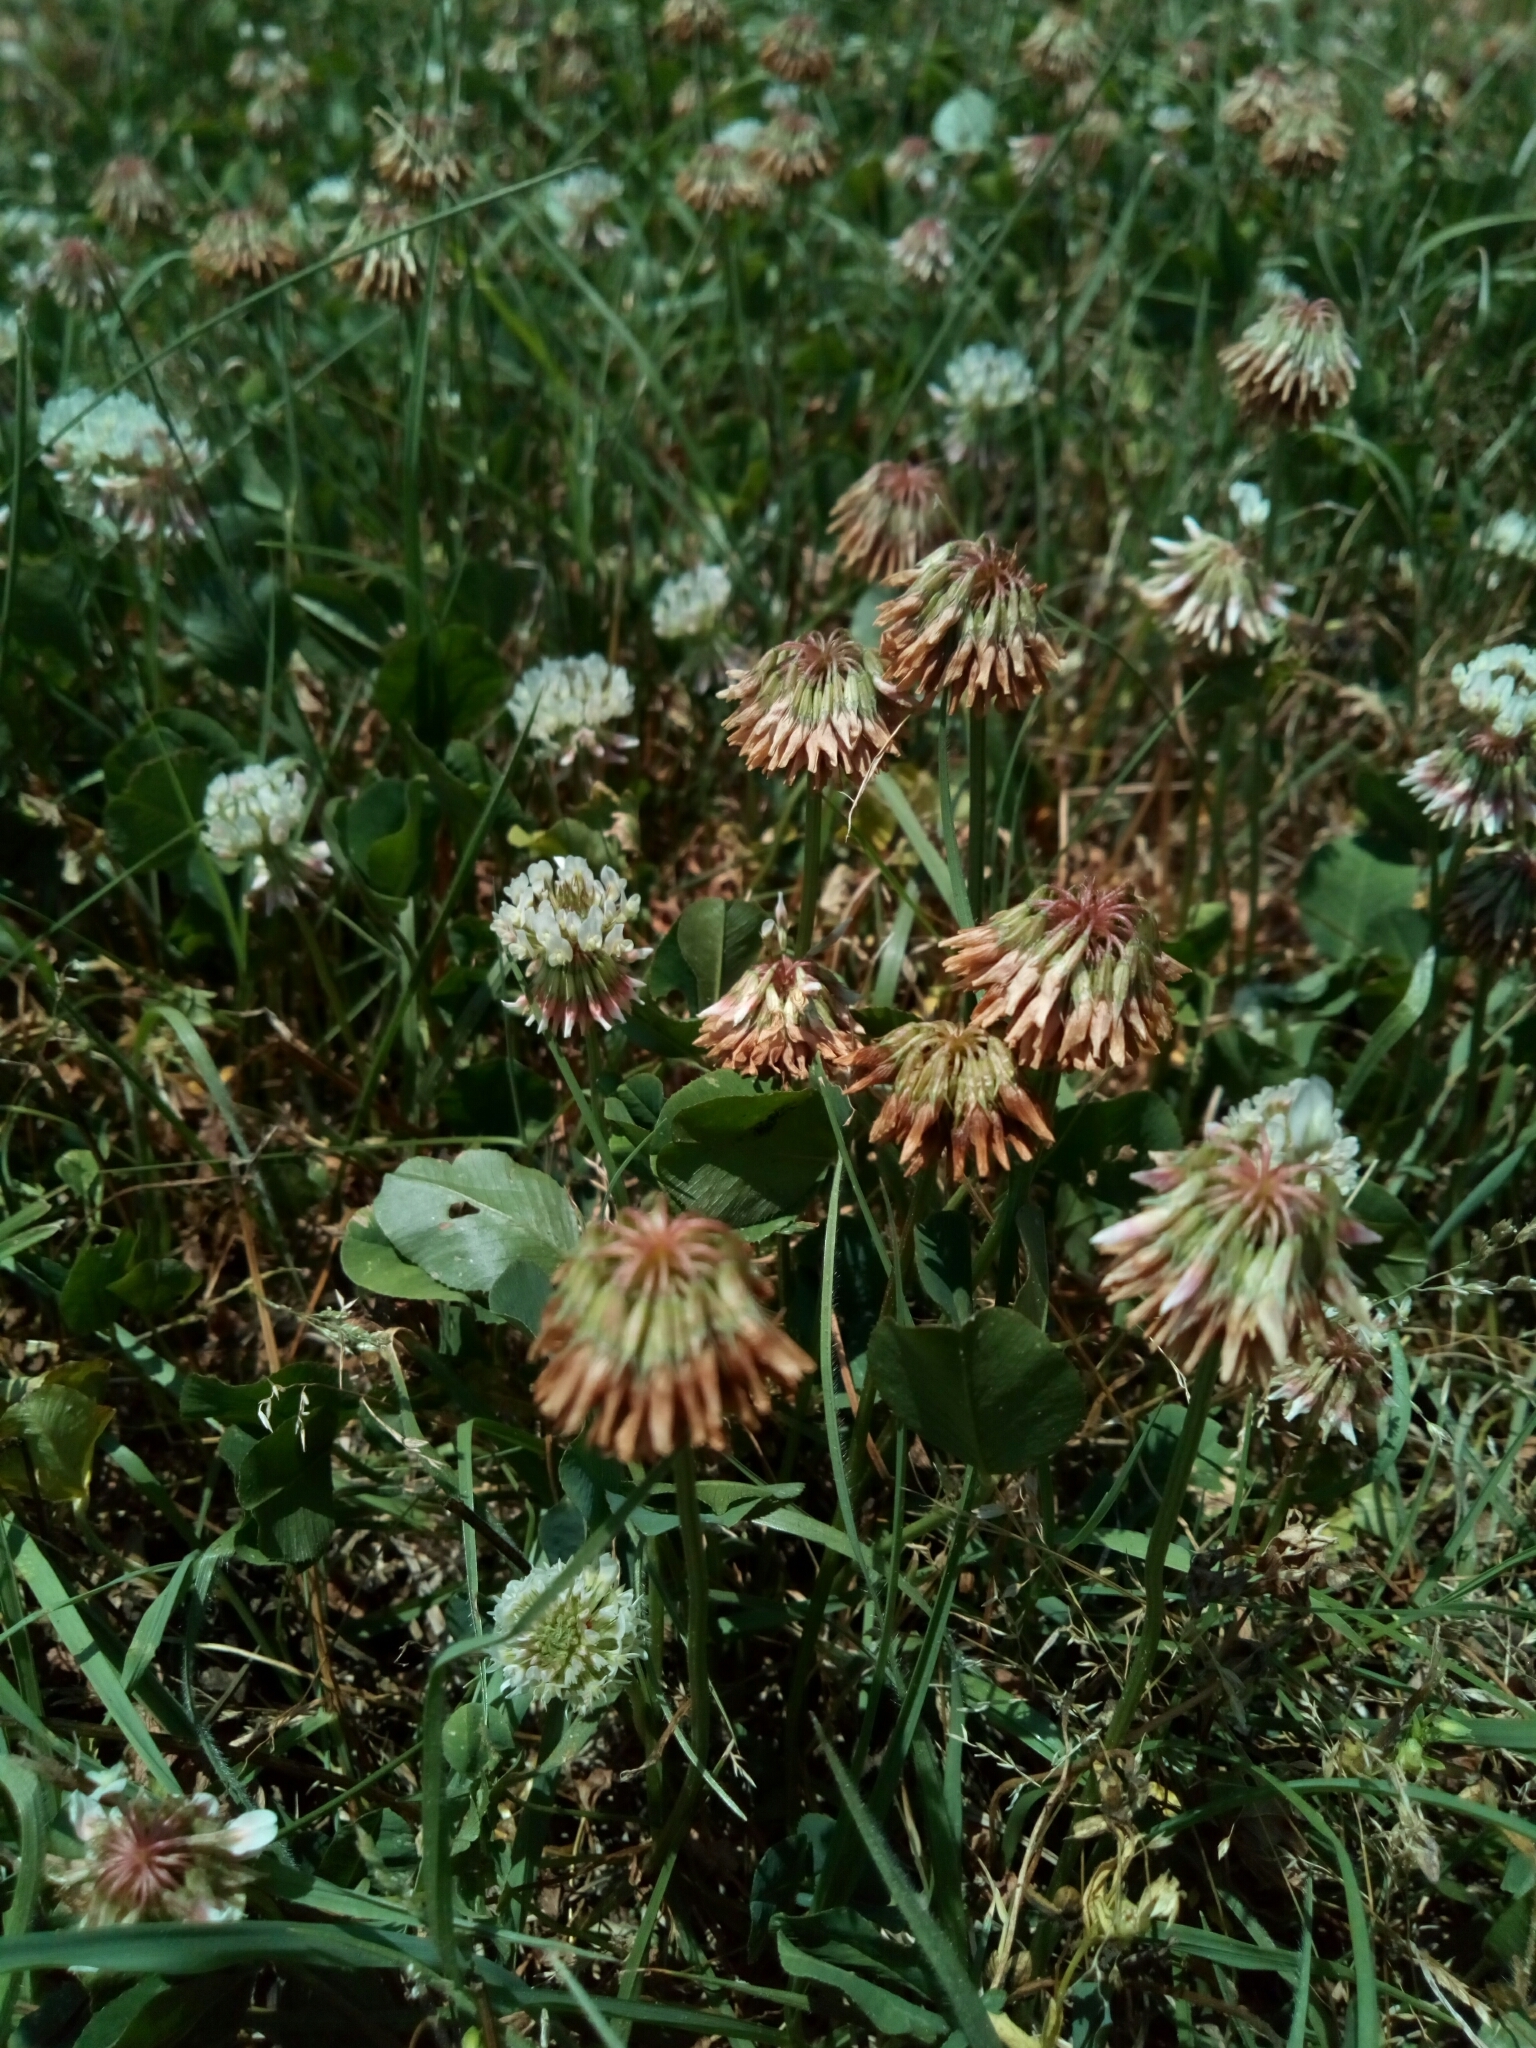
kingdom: Plantae
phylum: Tracheophyta
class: Magnoliopsida
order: Fabales
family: Fabaceae
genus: Trifolium
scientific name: Trifolium repens
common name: White clover
